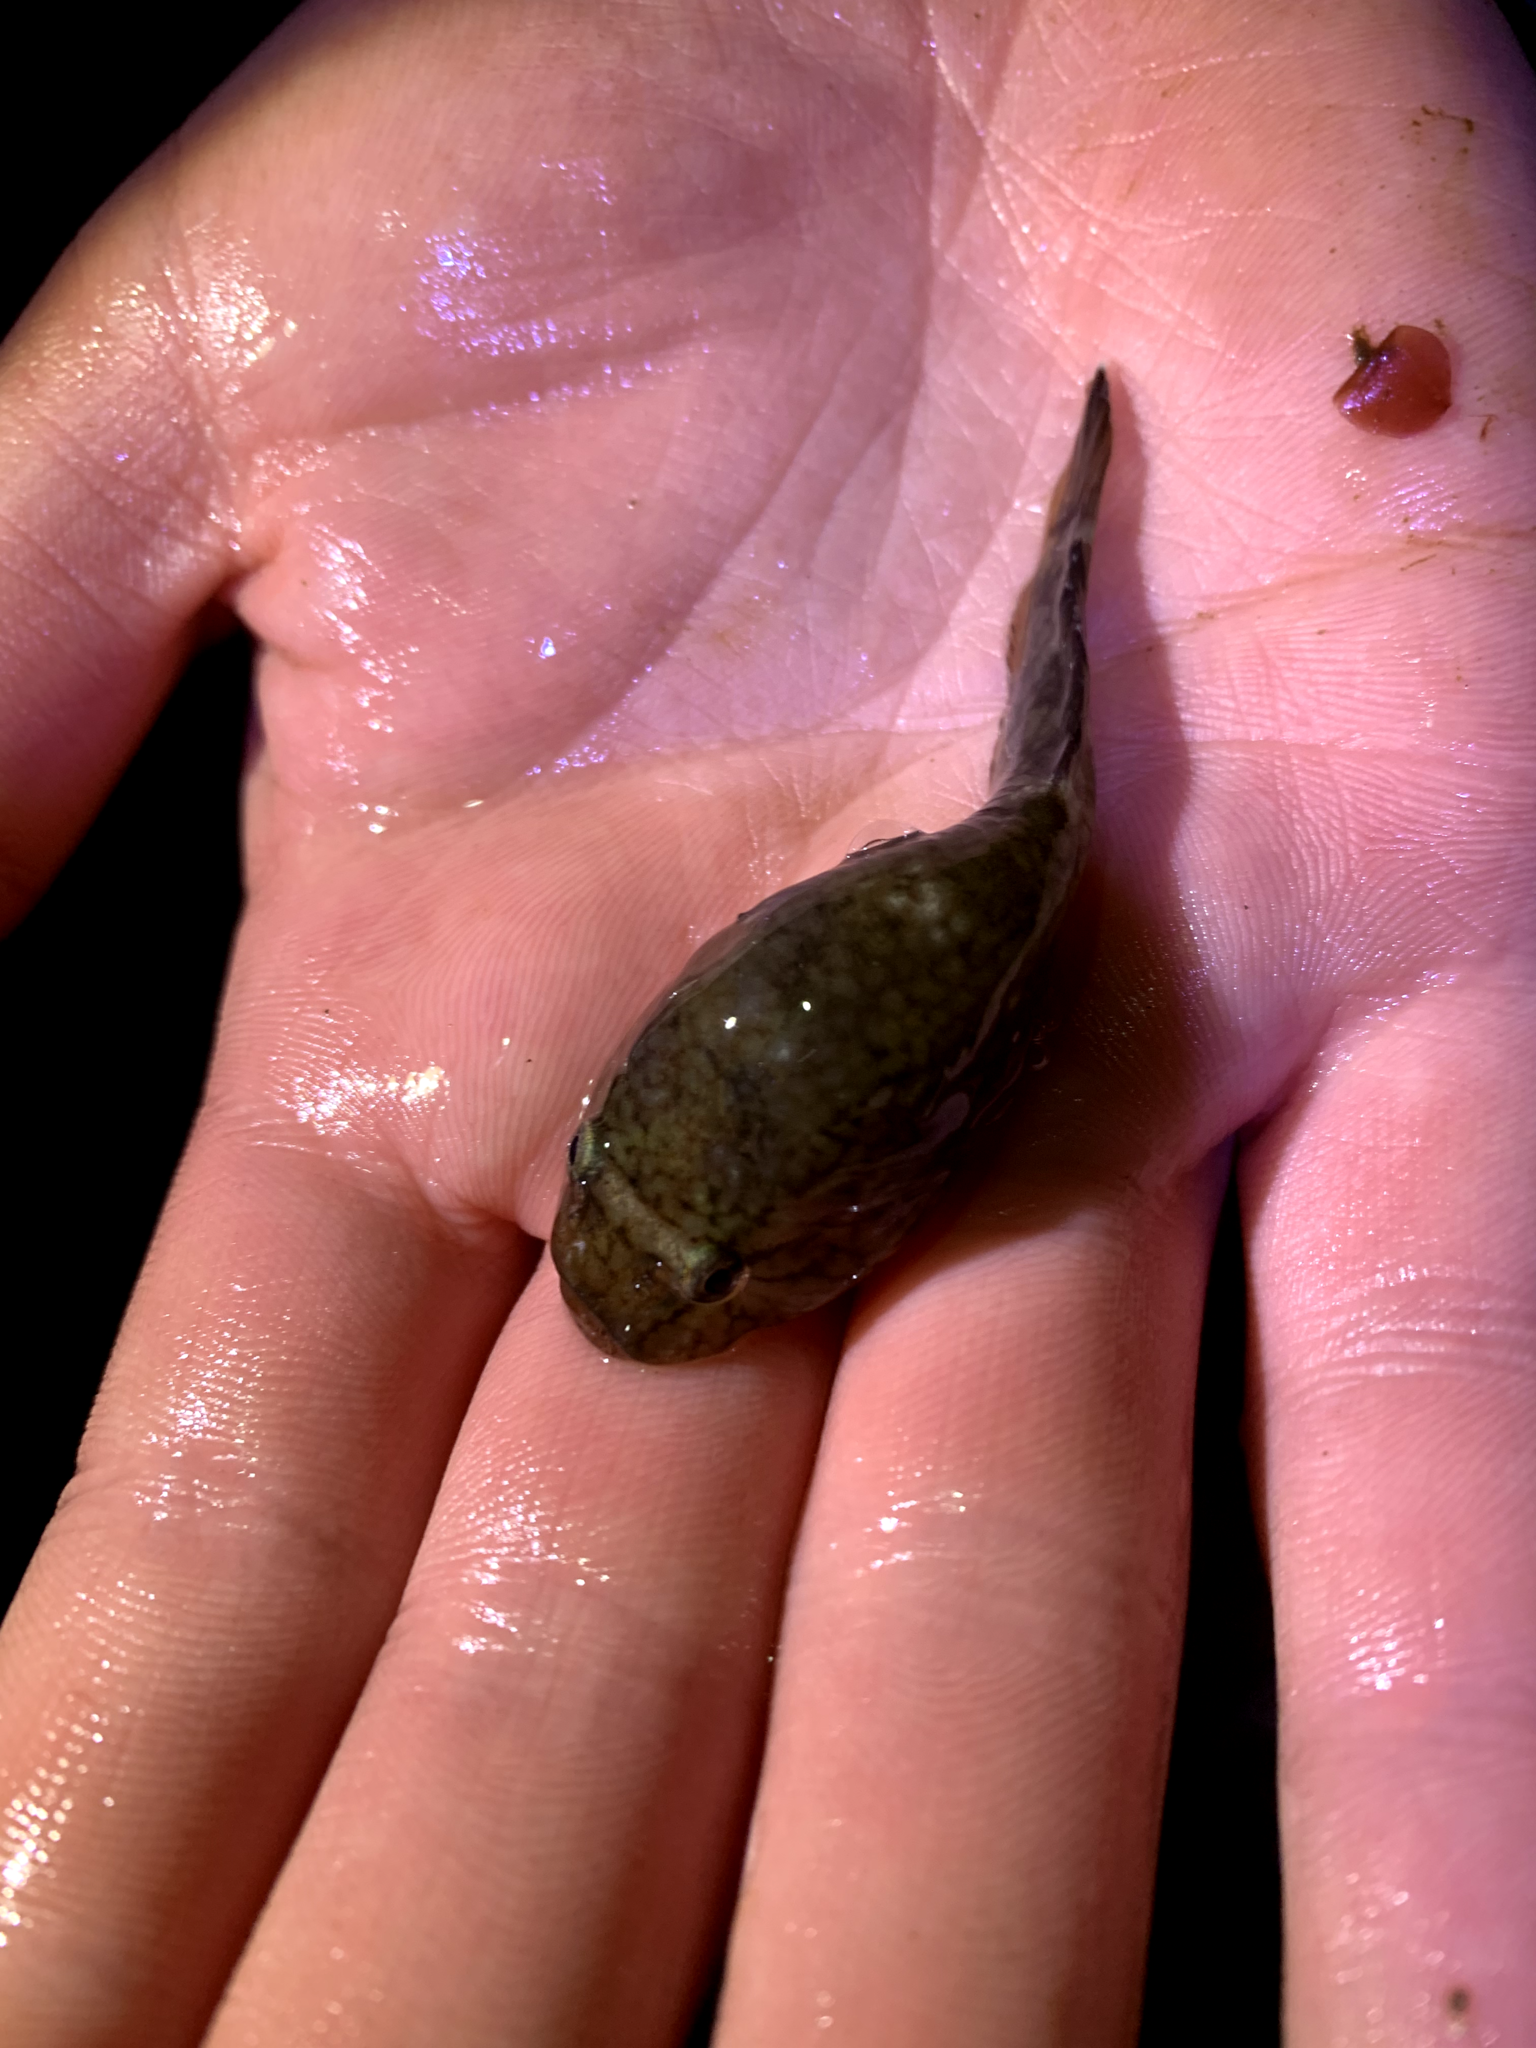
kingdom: Animalia
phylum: Chordata
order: Gobiesociformes
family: Gobiesocidae
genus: Gobiesox
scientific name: Gobiesox maeandricus
